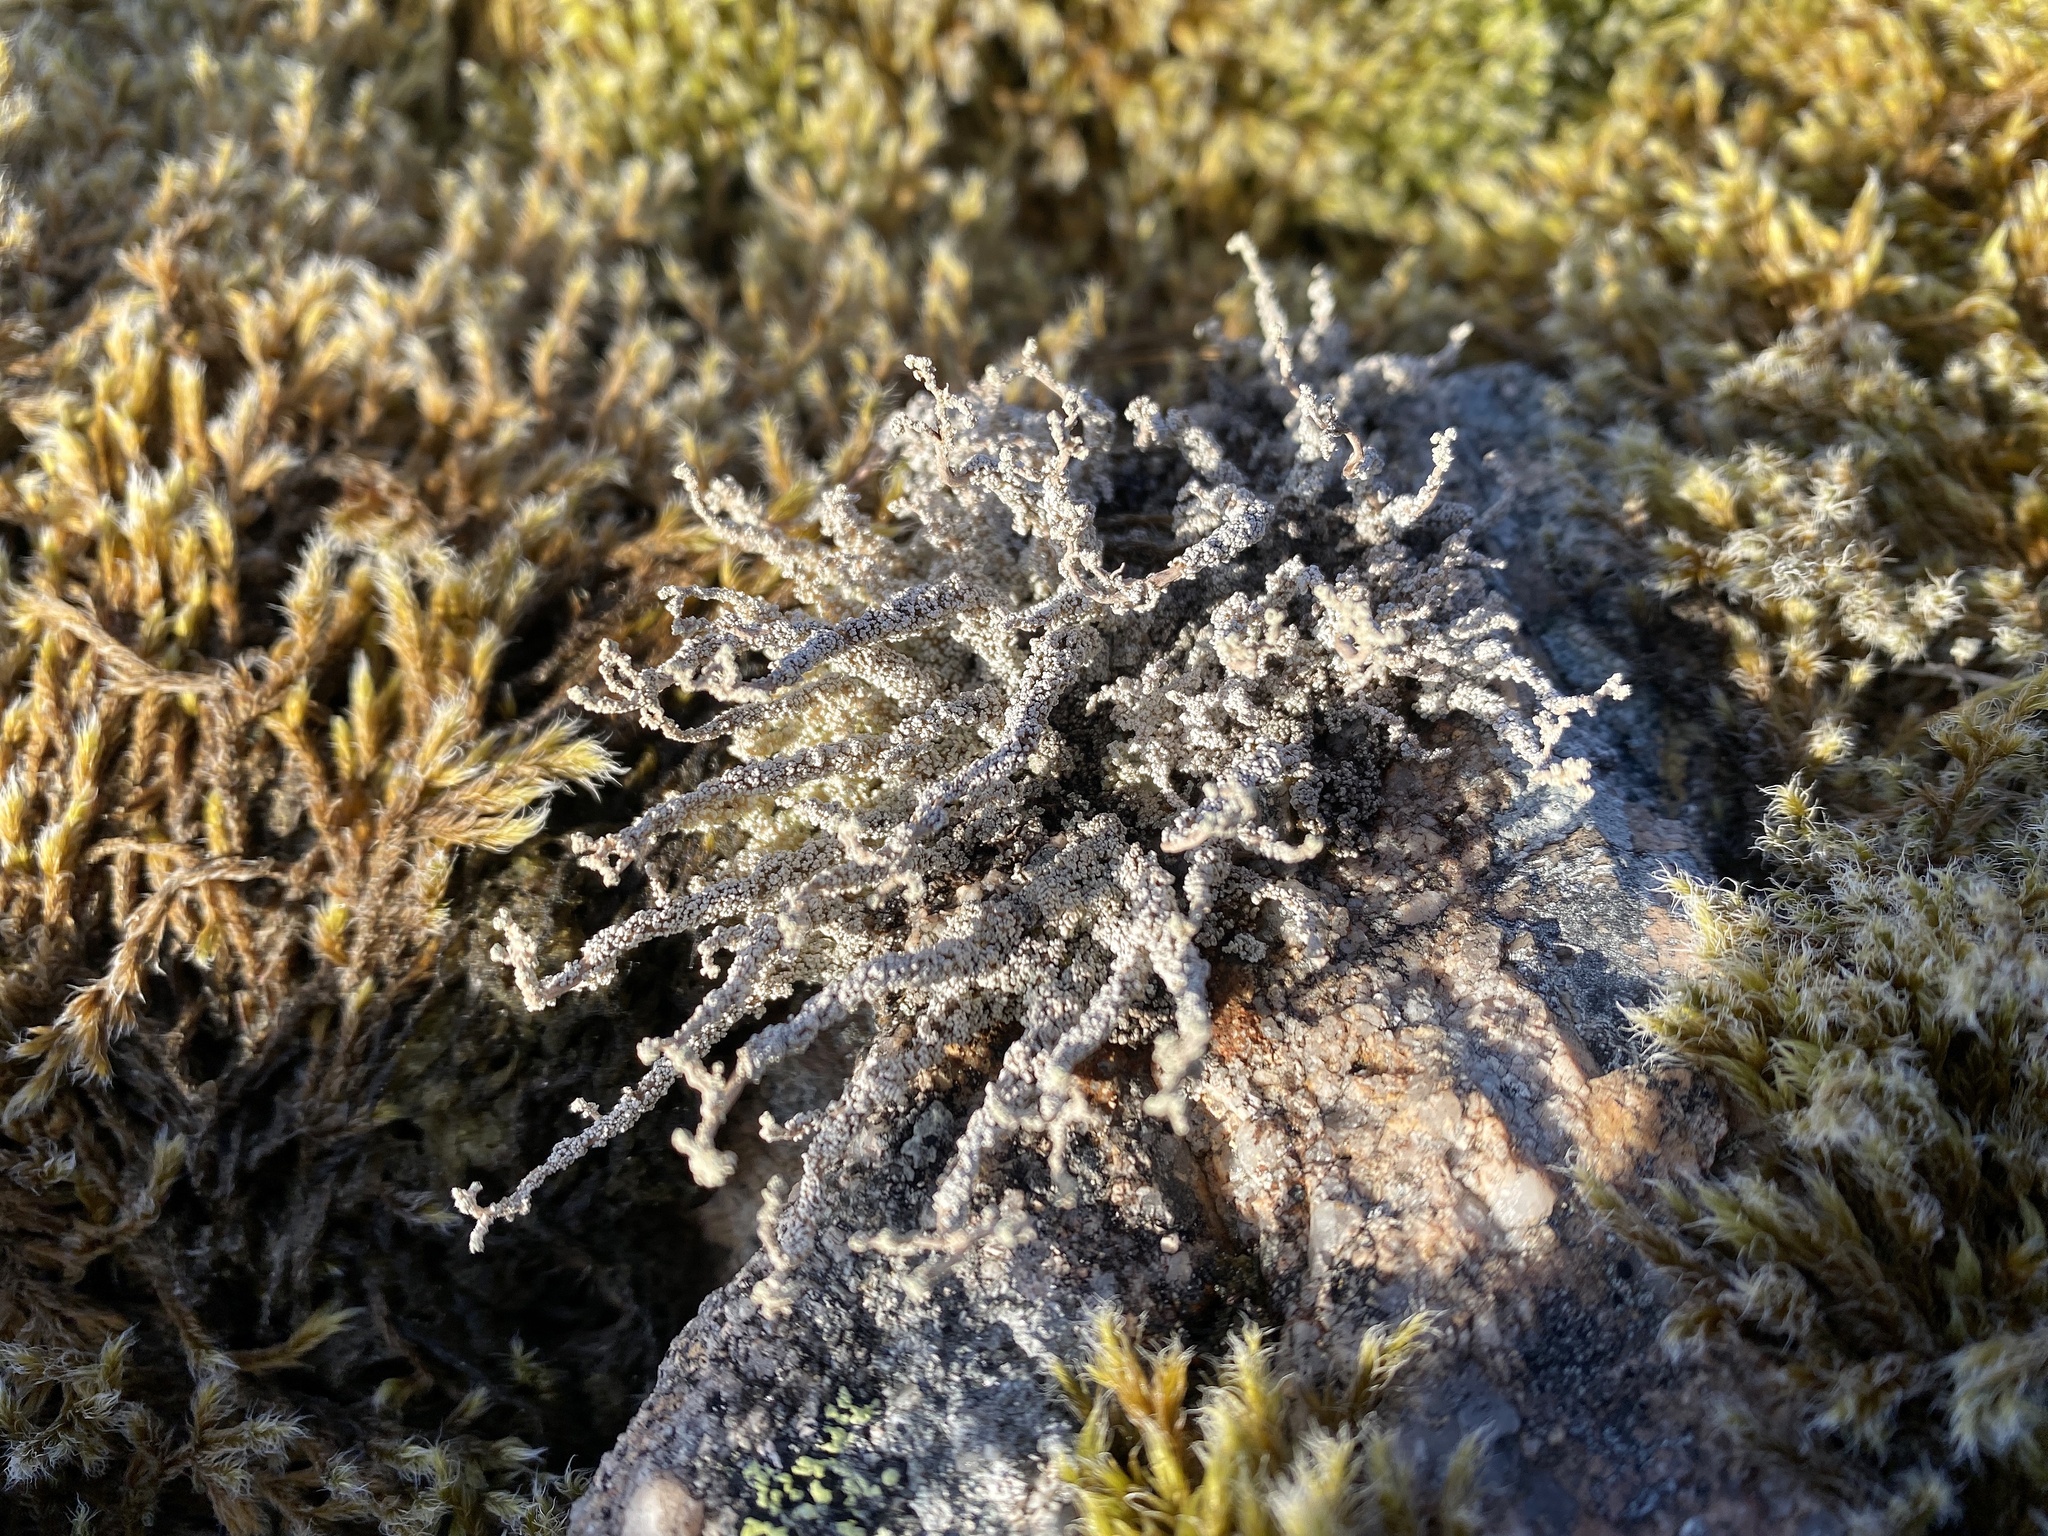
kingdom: Fungi
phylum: Ascomycota
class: Lecanoromycetes
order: Lecanorales
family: Stereocaulaceae
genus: Stereocaulon
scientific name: Stereocaulon vesuvianum
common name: Variegated foam lichen
